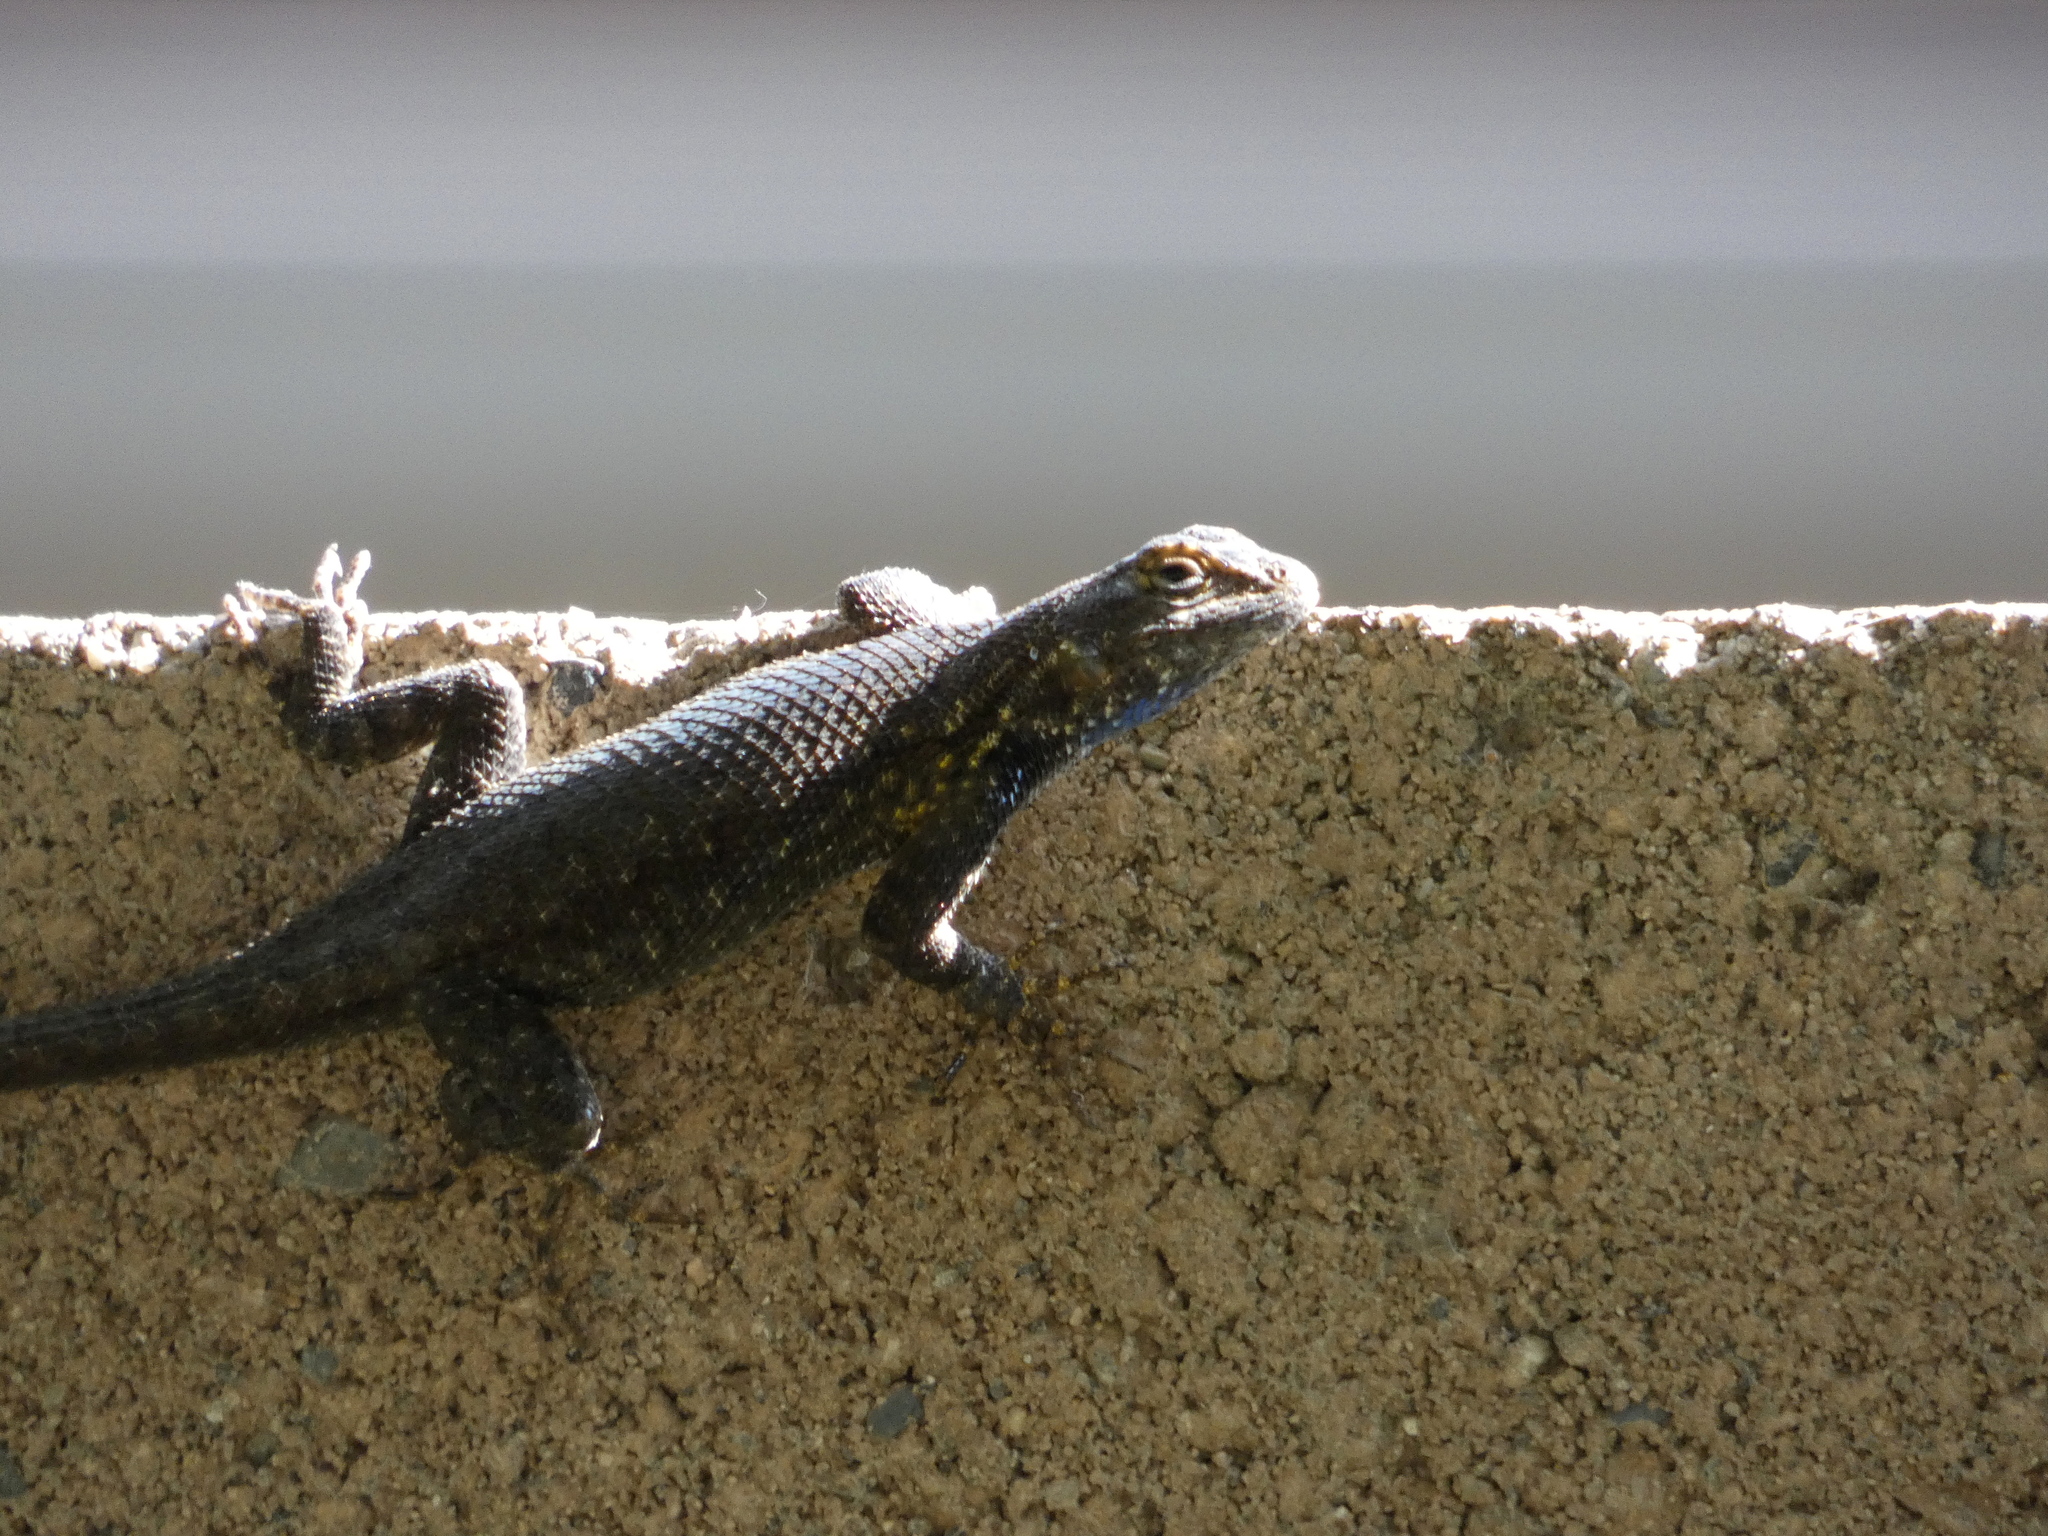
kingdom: Animalia
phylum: Chordata
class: Squamata
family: Phrynosomatidae
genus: Sceloporus
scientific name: Sceloporus occidentalis
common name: Western fence lizard
